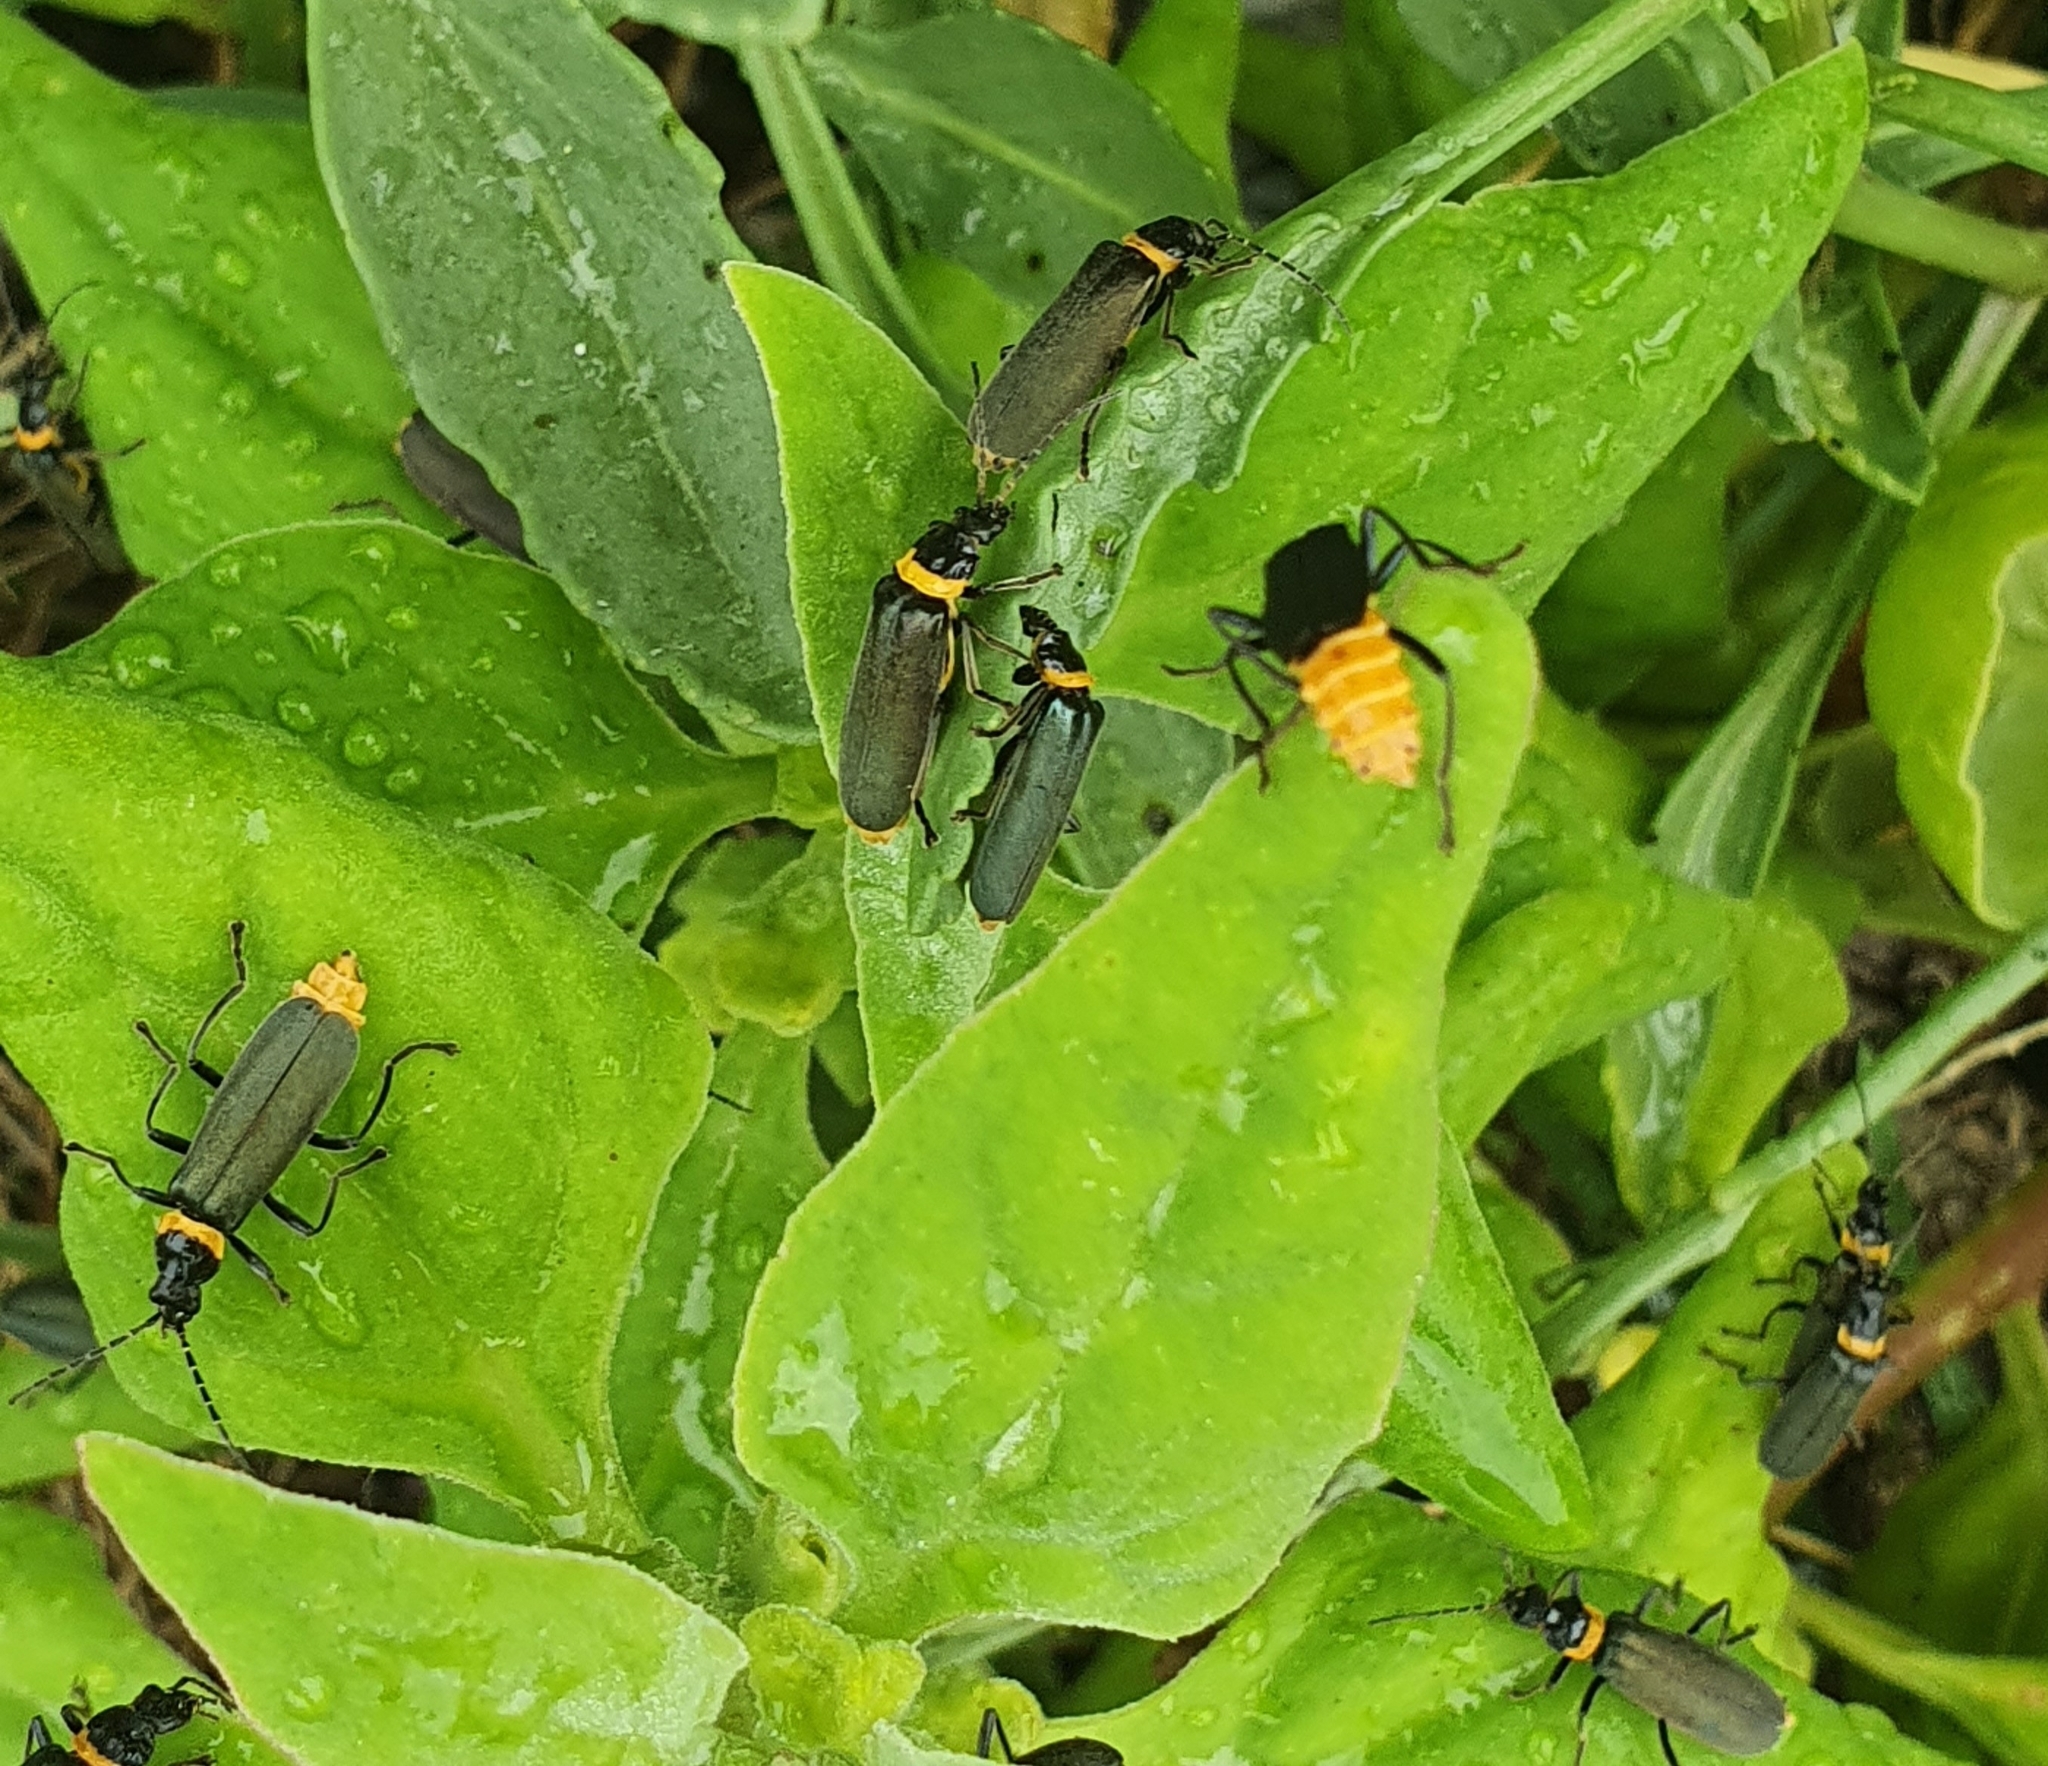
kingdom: Animalia
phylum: Arthropoda
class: Insecta
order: Coleoptera
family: Cantharidae
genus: Chauliognathus
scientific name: Chauliognathus
